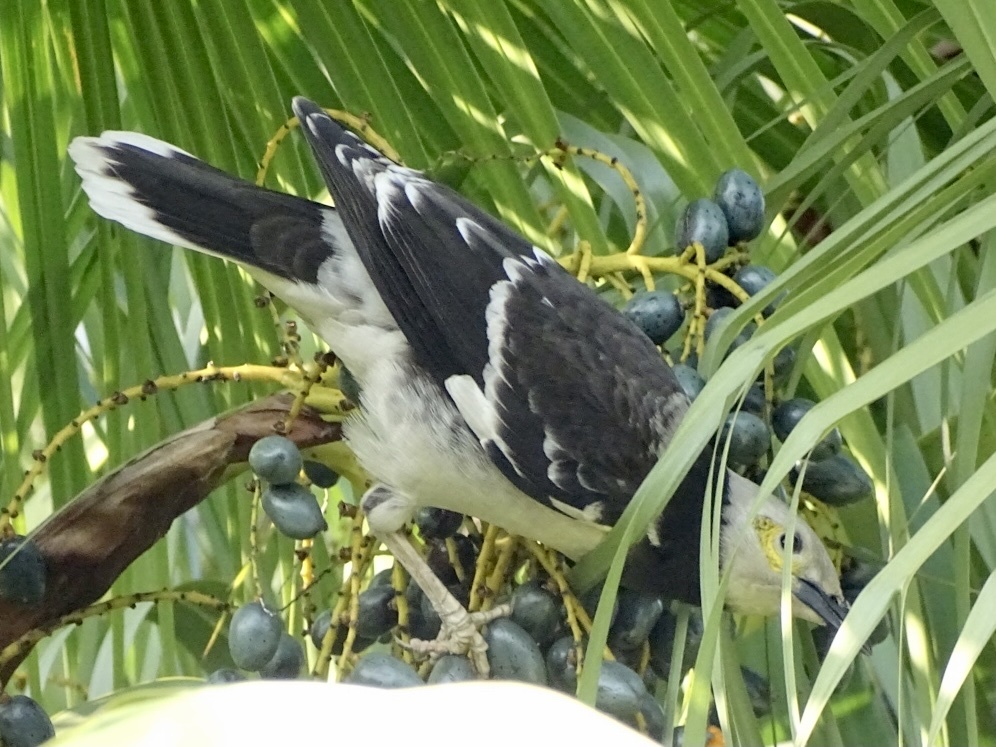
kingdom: Animalia
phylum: Chordata
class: Aves
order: Passeriformes
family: Sturnidae
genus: Gracupica
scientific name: Gracupica nigricollis
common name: Black-collared starling
